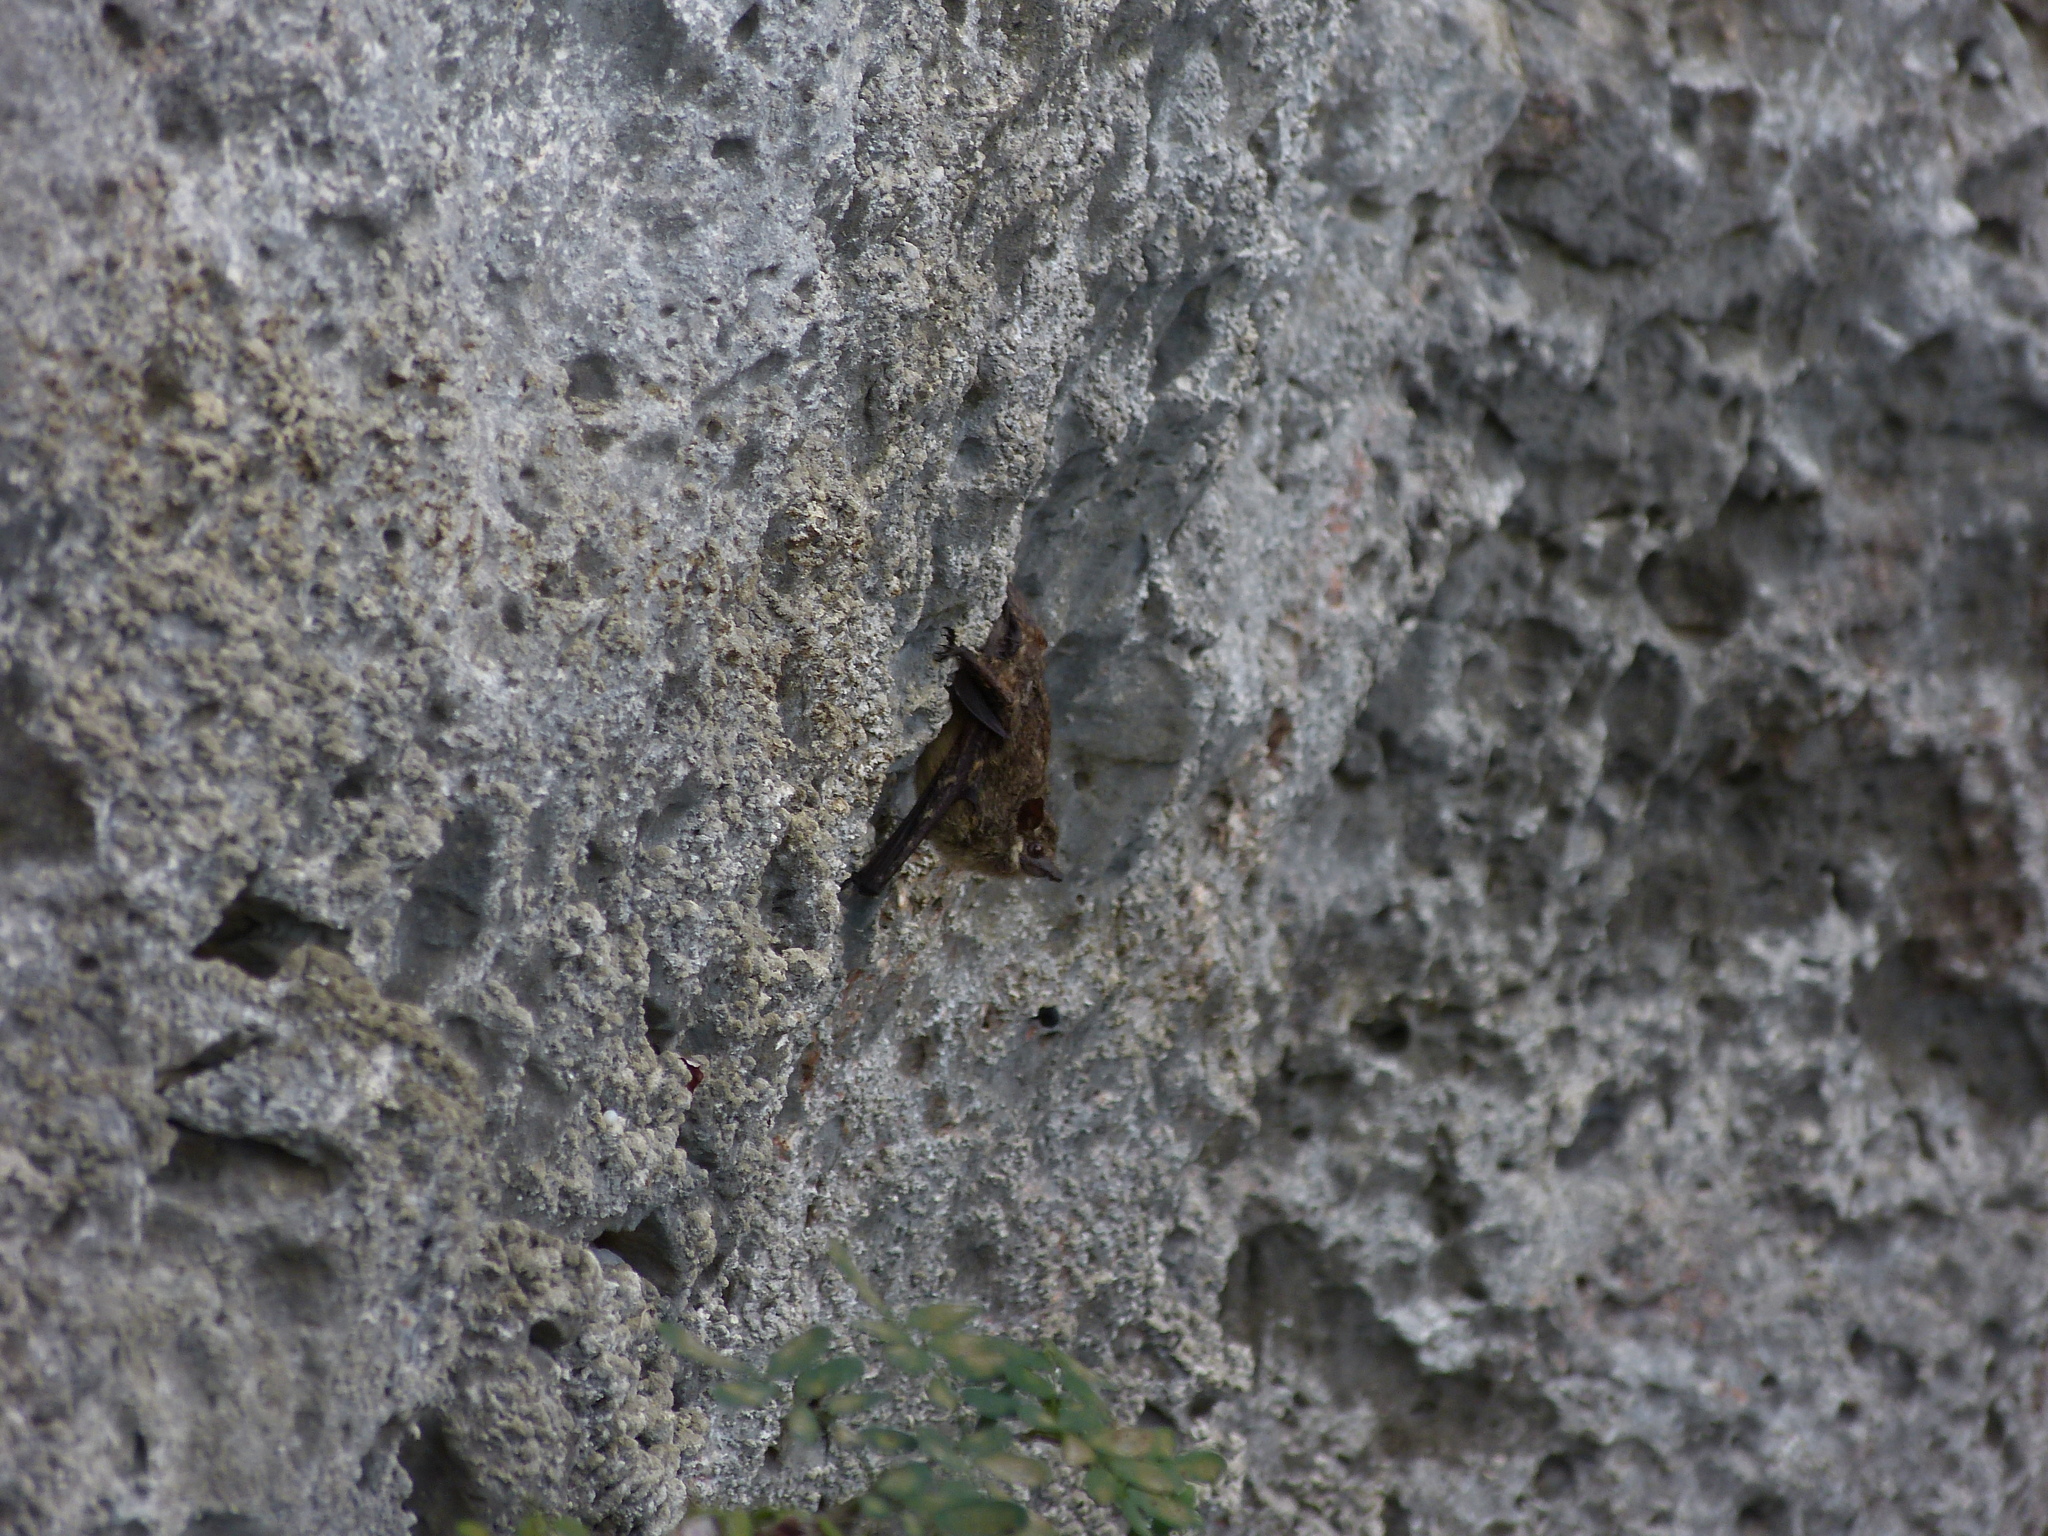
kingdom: Animalia
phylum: Chordata
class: Mammalia
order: Chiroptera
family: Emballonuridae
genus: Rhynchonycteris
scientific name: Rhynchonycteris naso
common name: Proboscis bat
